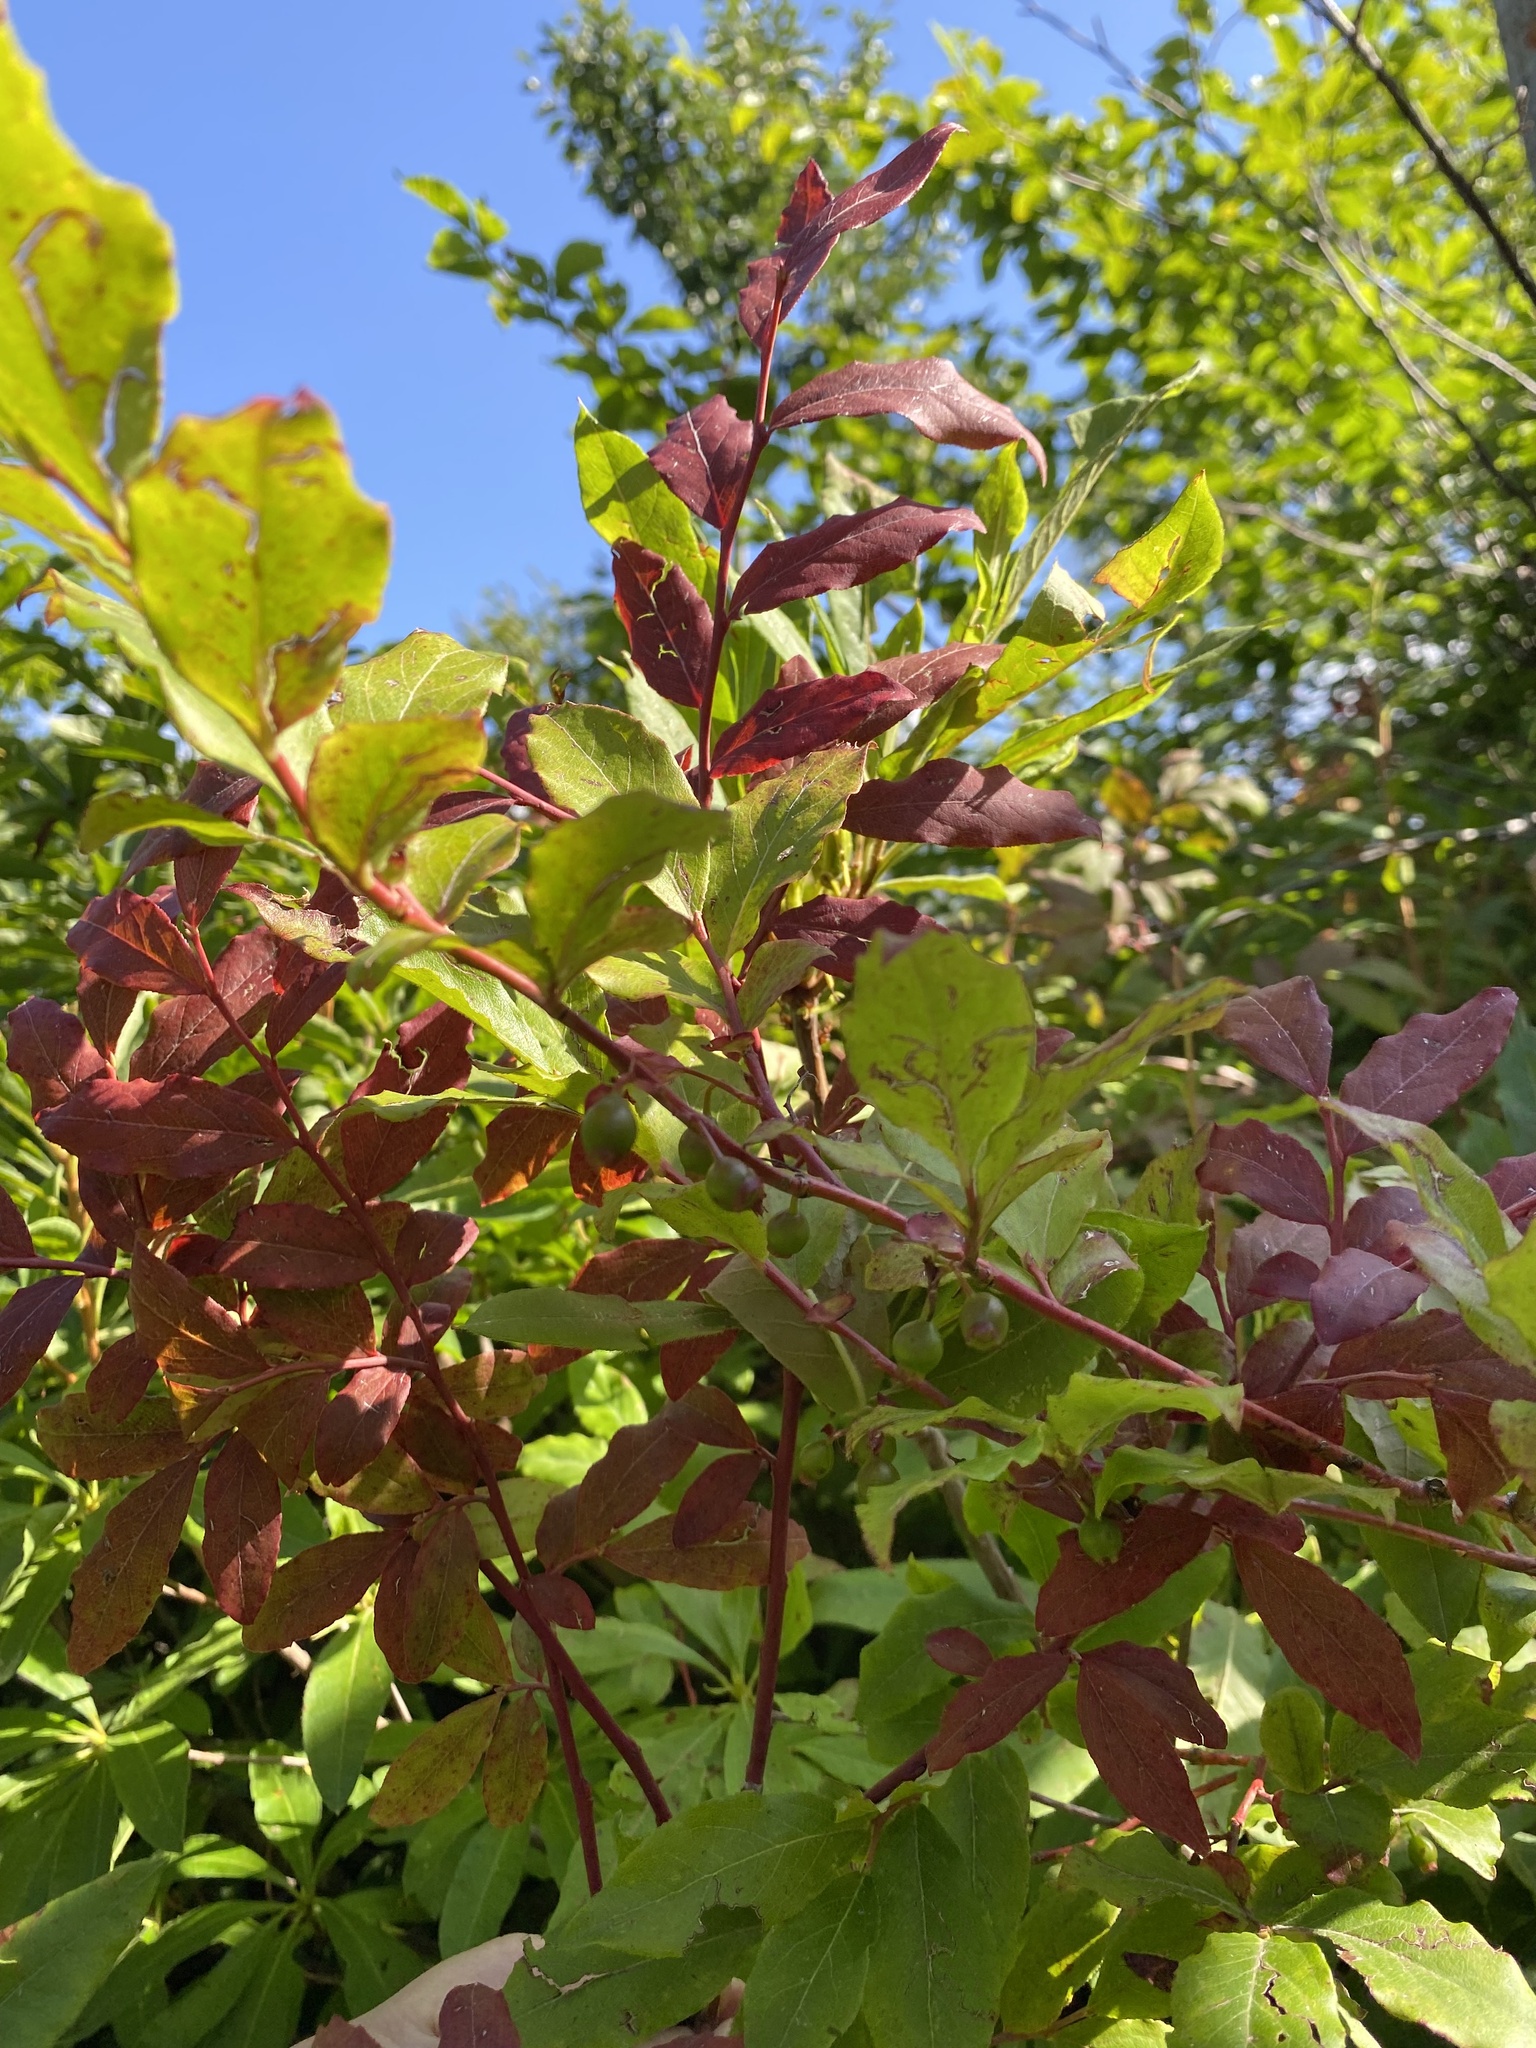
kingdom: Plantae
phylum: Tracheophyta
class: Magnoliopsida
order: Ericales
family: Ericaceae
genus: Vaccinium
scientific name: Vaccinium arctostaphylos
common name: Caucasian whortleberry
